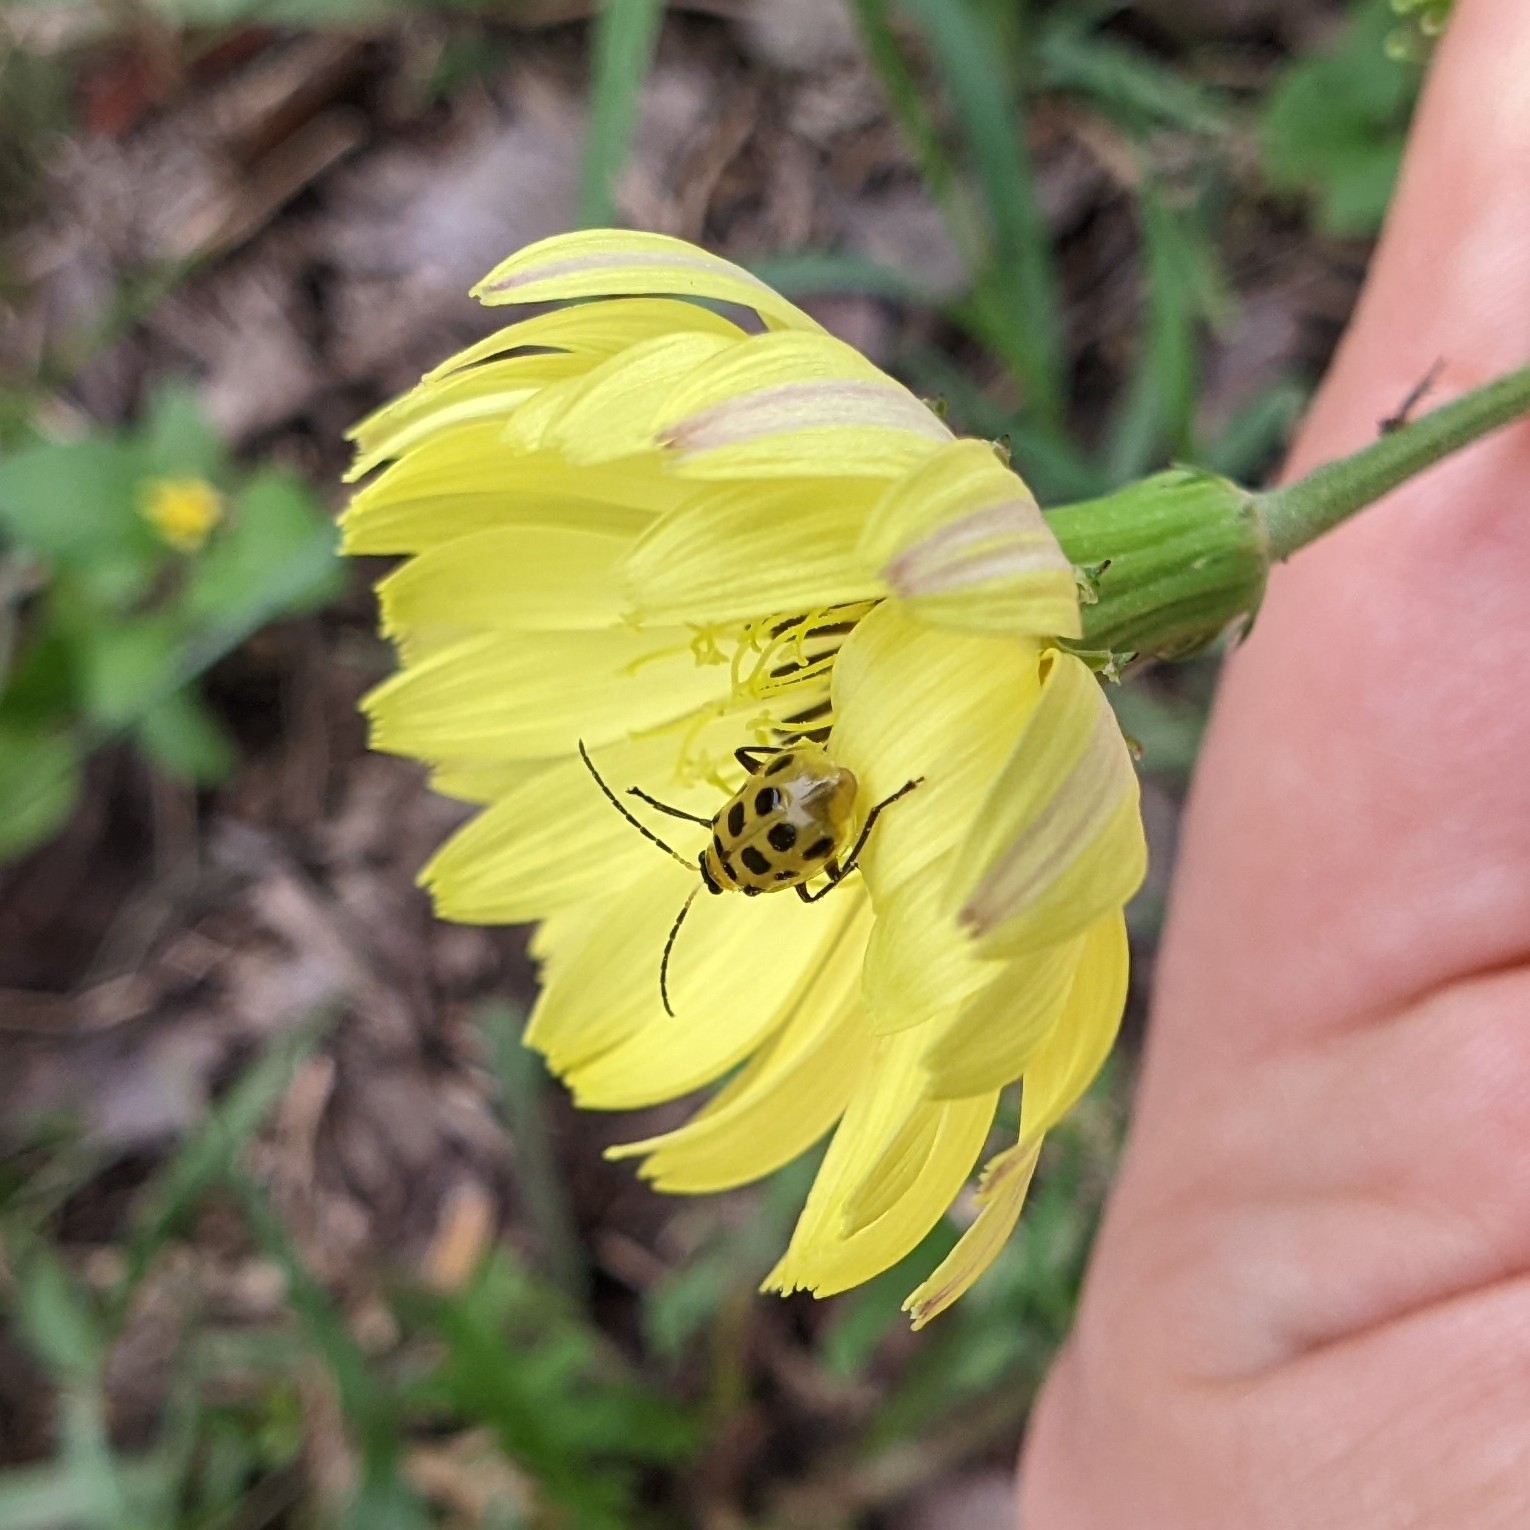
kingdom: Animalia
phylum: Arthropoda
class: Insecta
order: Coleoptera
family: Chrysomelidae
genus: Diabrotica
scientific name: Diabrotica undecimpunctata
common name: Spotted cucumber beetle
